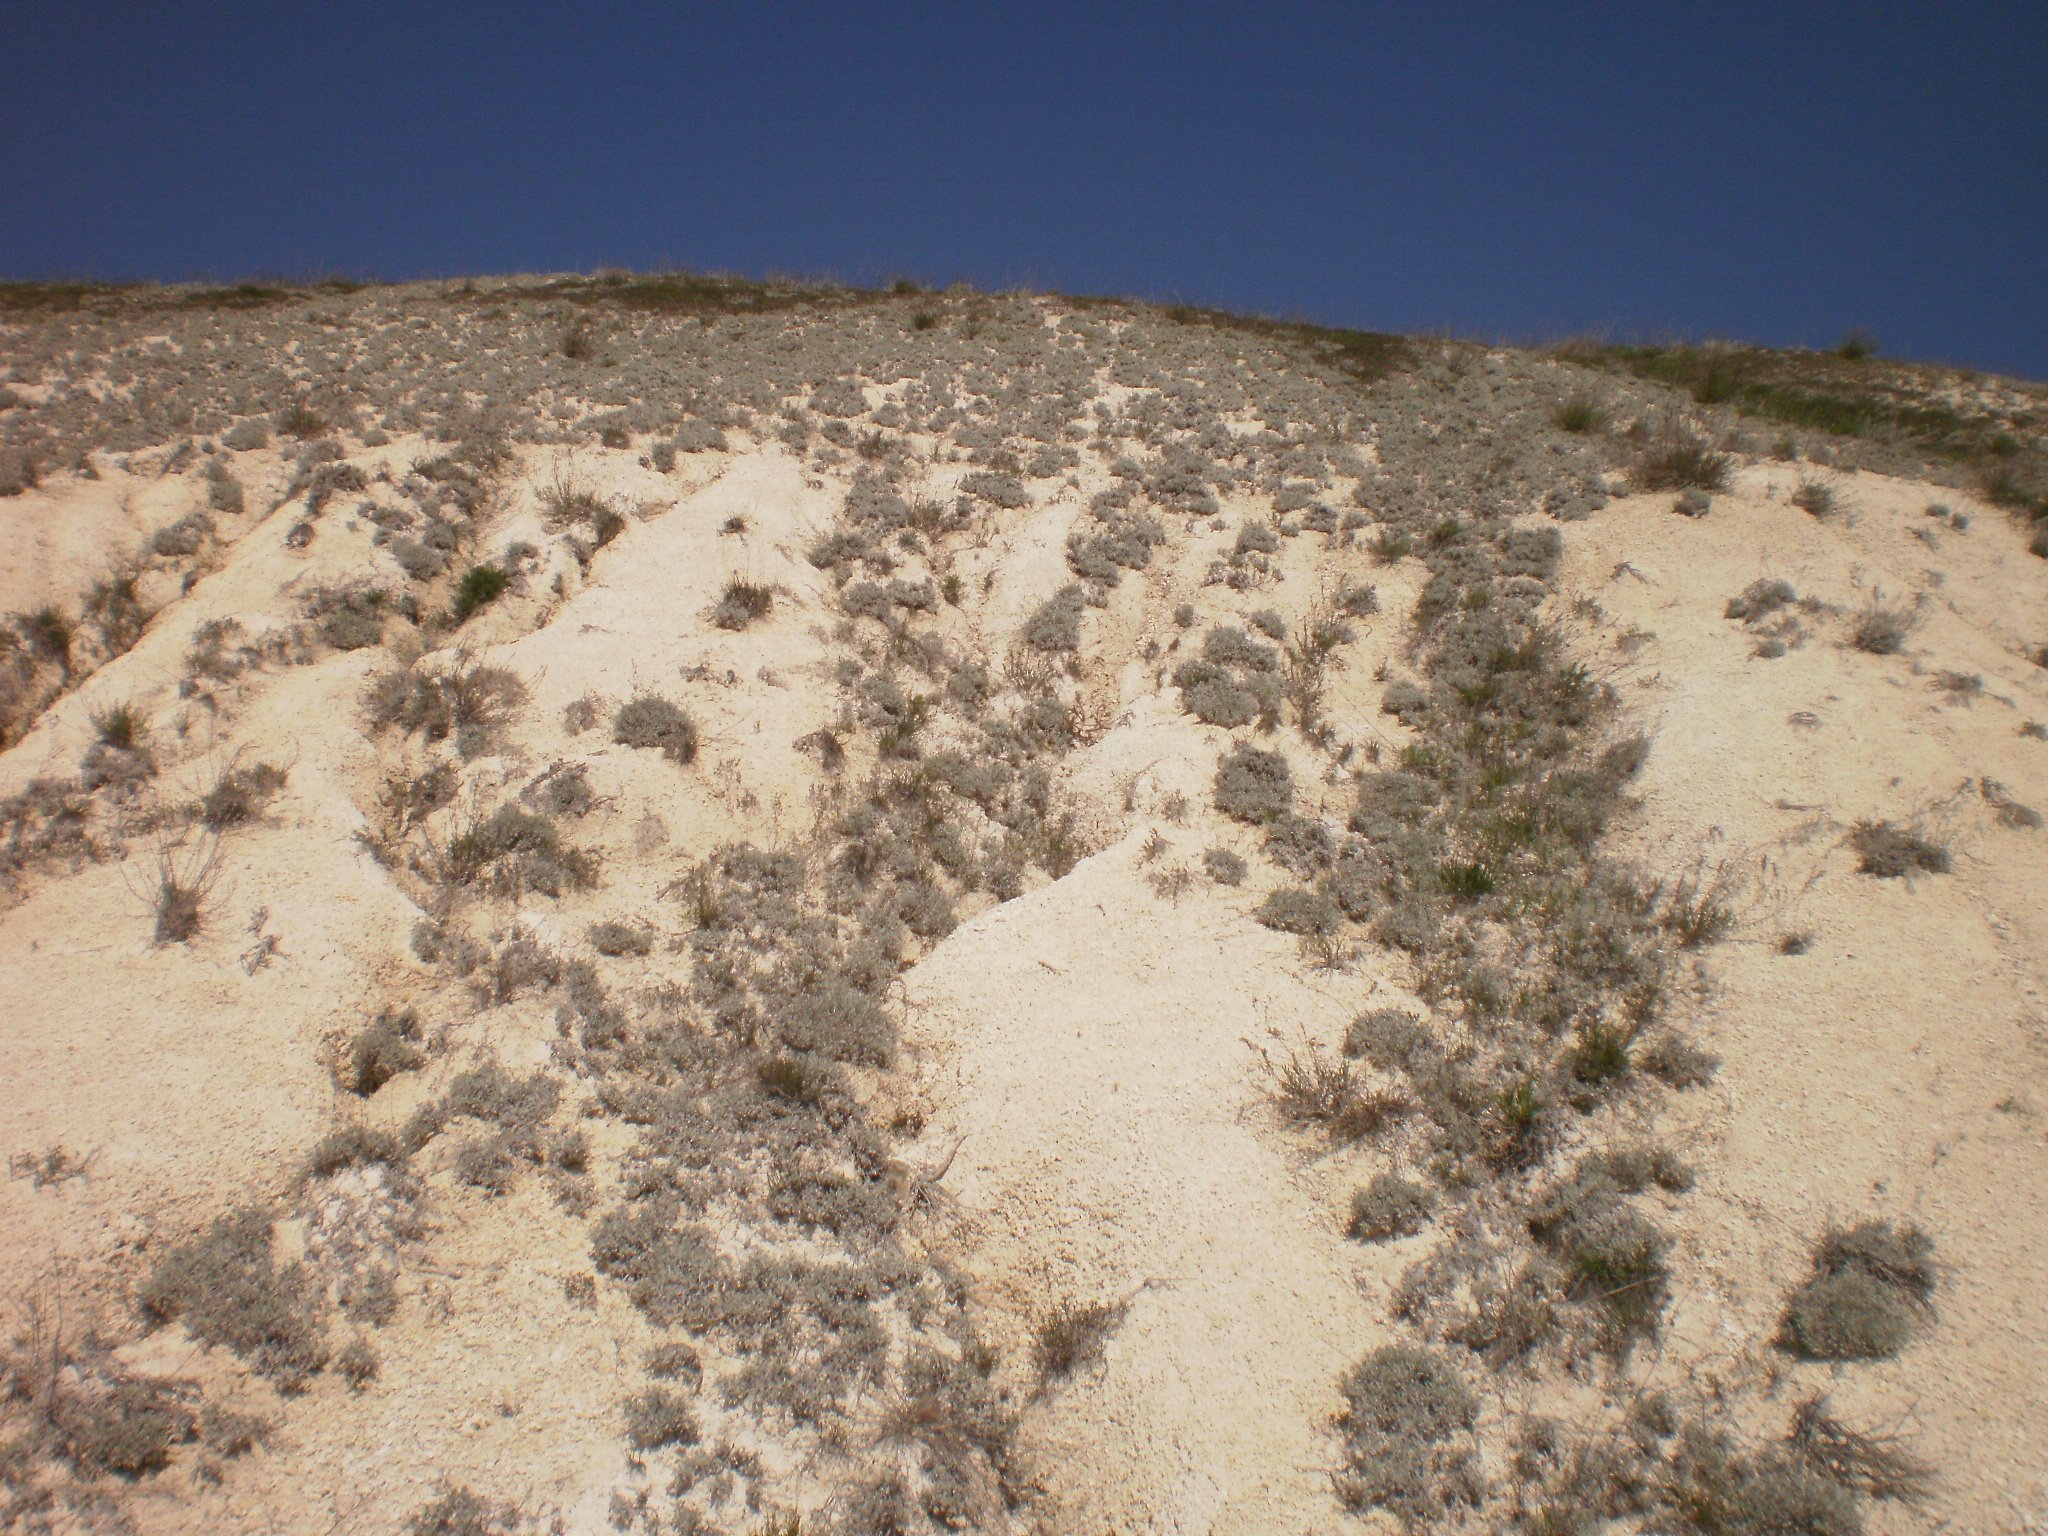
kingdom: Plantae
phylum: Tracheophyta
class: Magnoliopsida
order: Asterales
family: Asteraceae
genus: Artemisia
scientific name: Artemisia hololeuca
